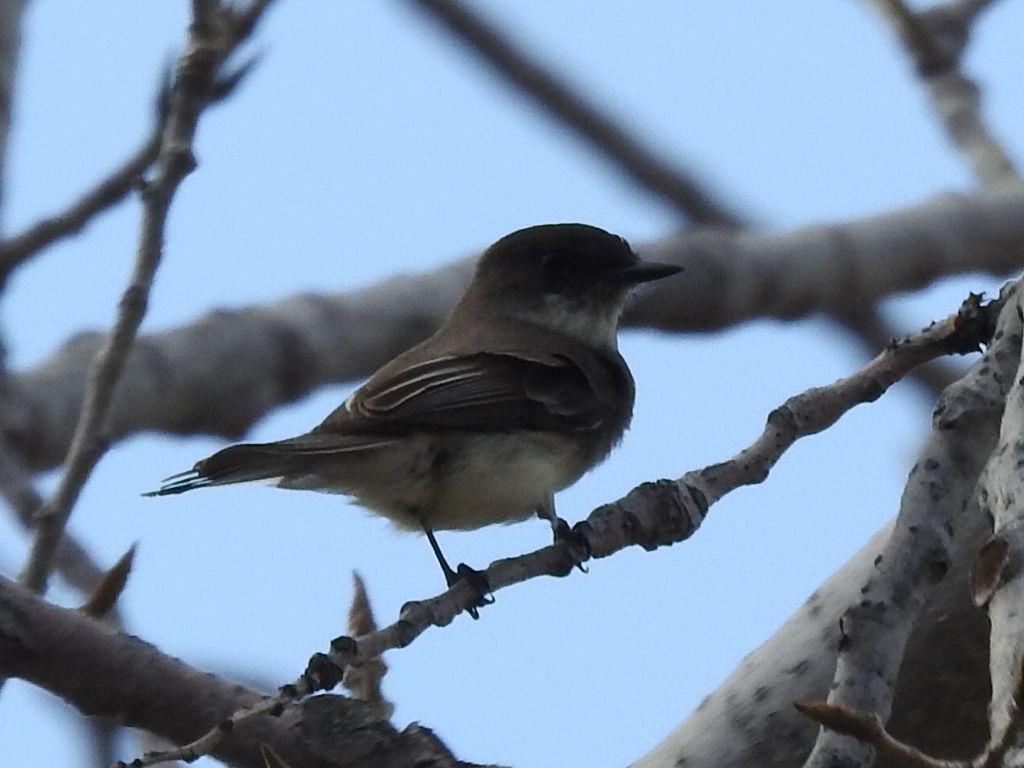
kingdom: Animalia
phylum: Chordata
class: Aves
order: Passeriformes
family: Tyrannidae
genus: Sayornis
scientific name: Sayornis phoebe
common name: Eastern phoebe
